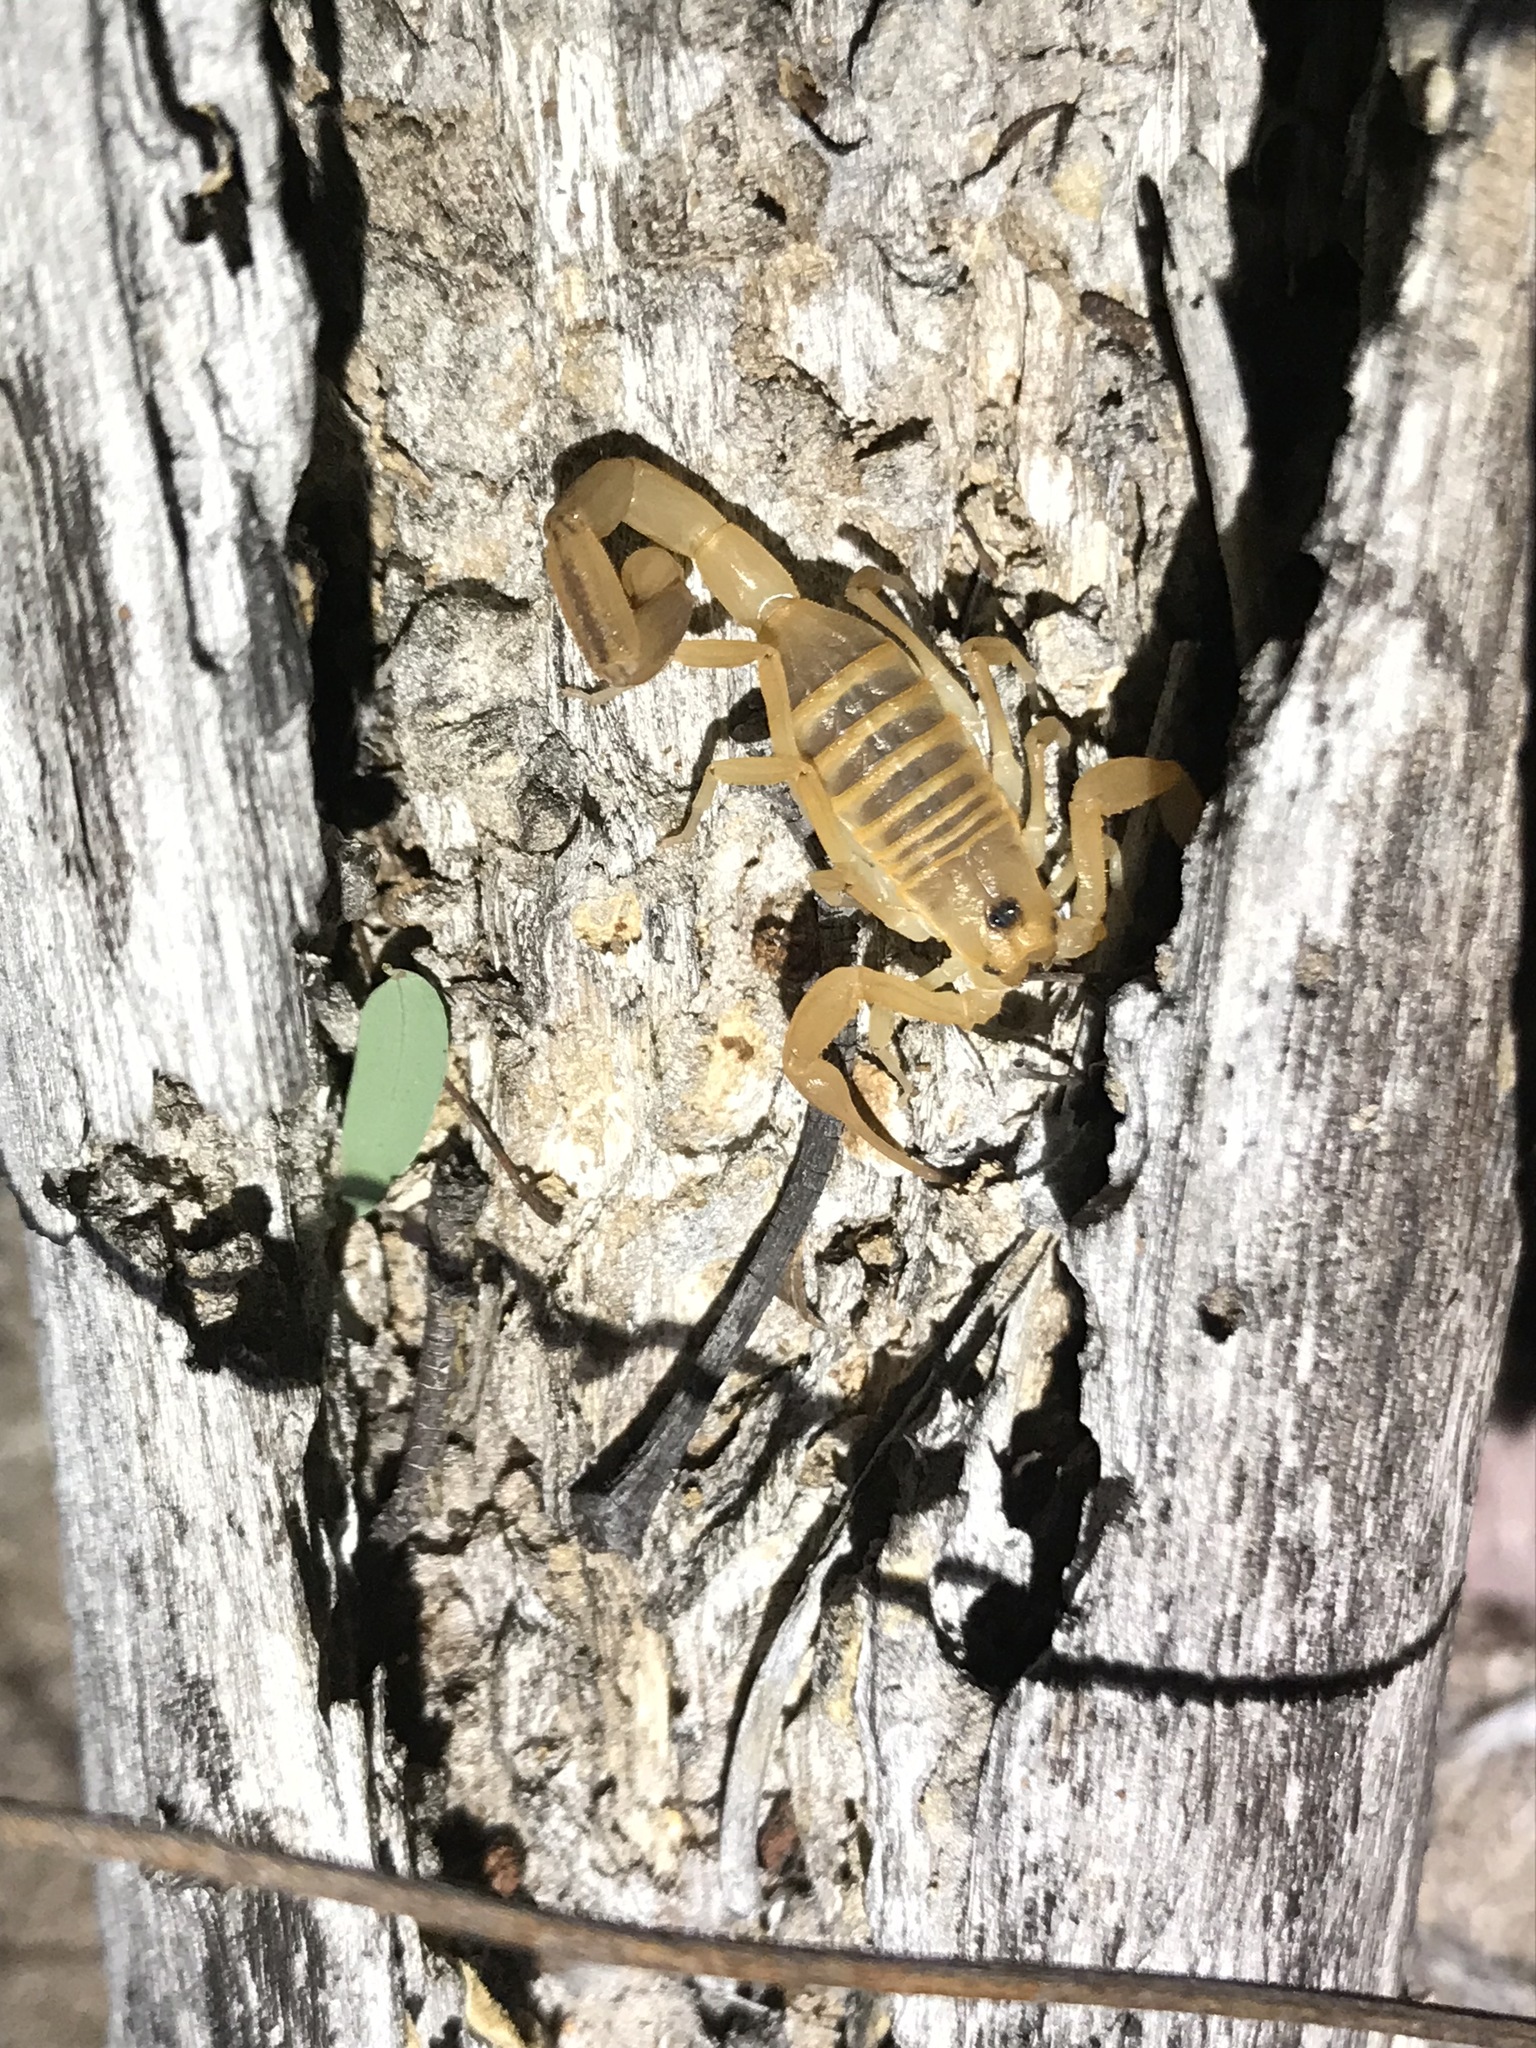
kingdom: Animalia
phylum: Arthropoda
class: Arachnida
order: Scorpiones
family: Buthidae
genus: Centruroides
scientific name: Centruroides exilicauda
